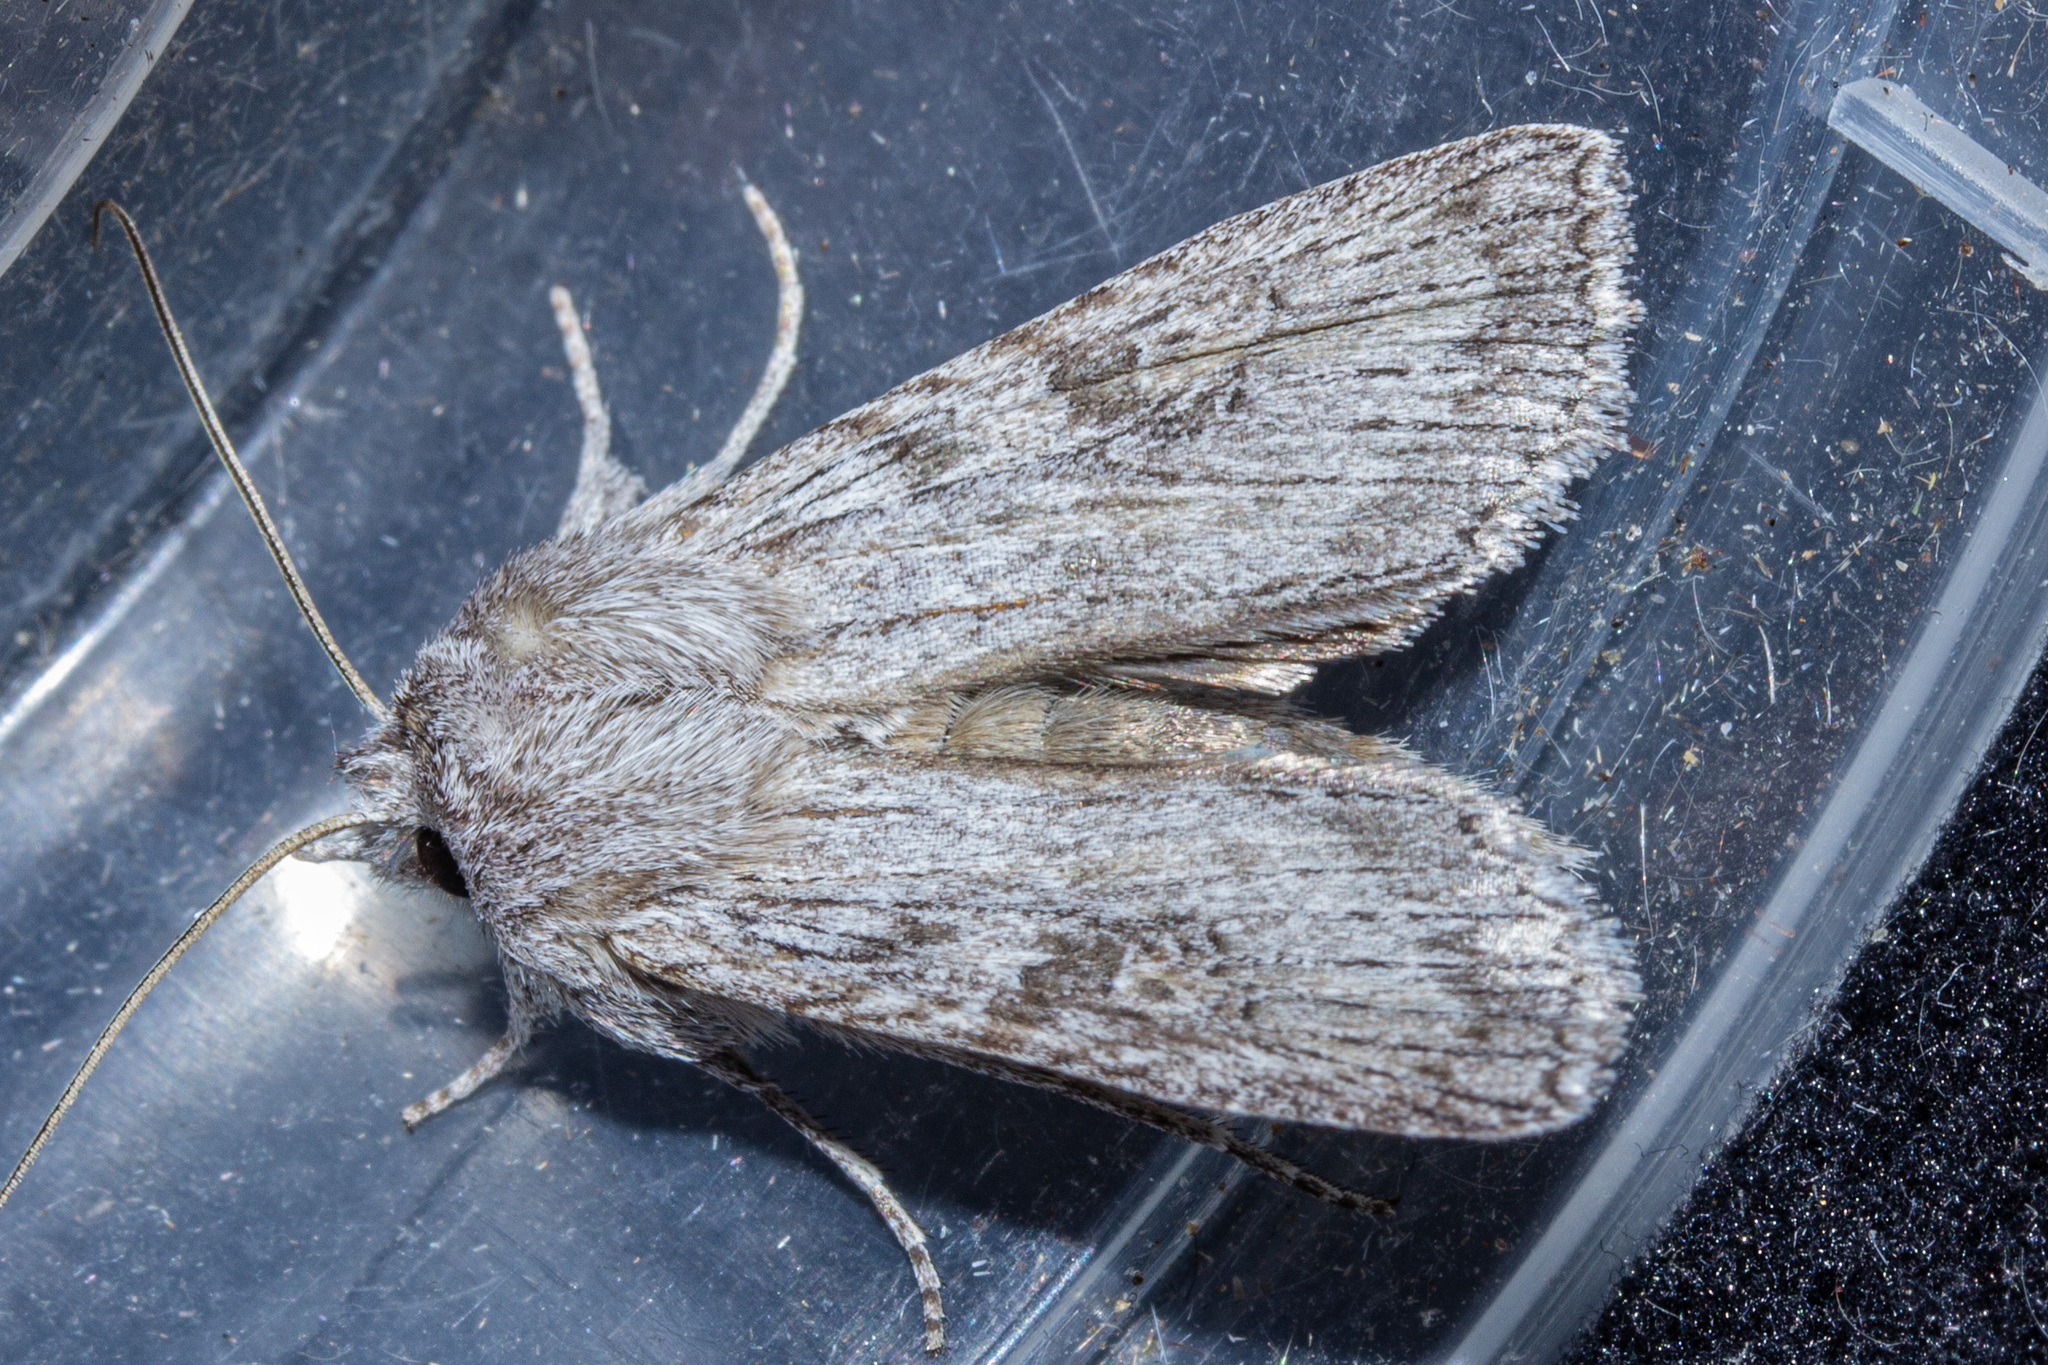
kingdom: Animalia
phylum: Arthropoda
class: Insecta
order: Lepidoptera
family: Noctuidae
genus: Physetica
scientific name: Physetica phricias
